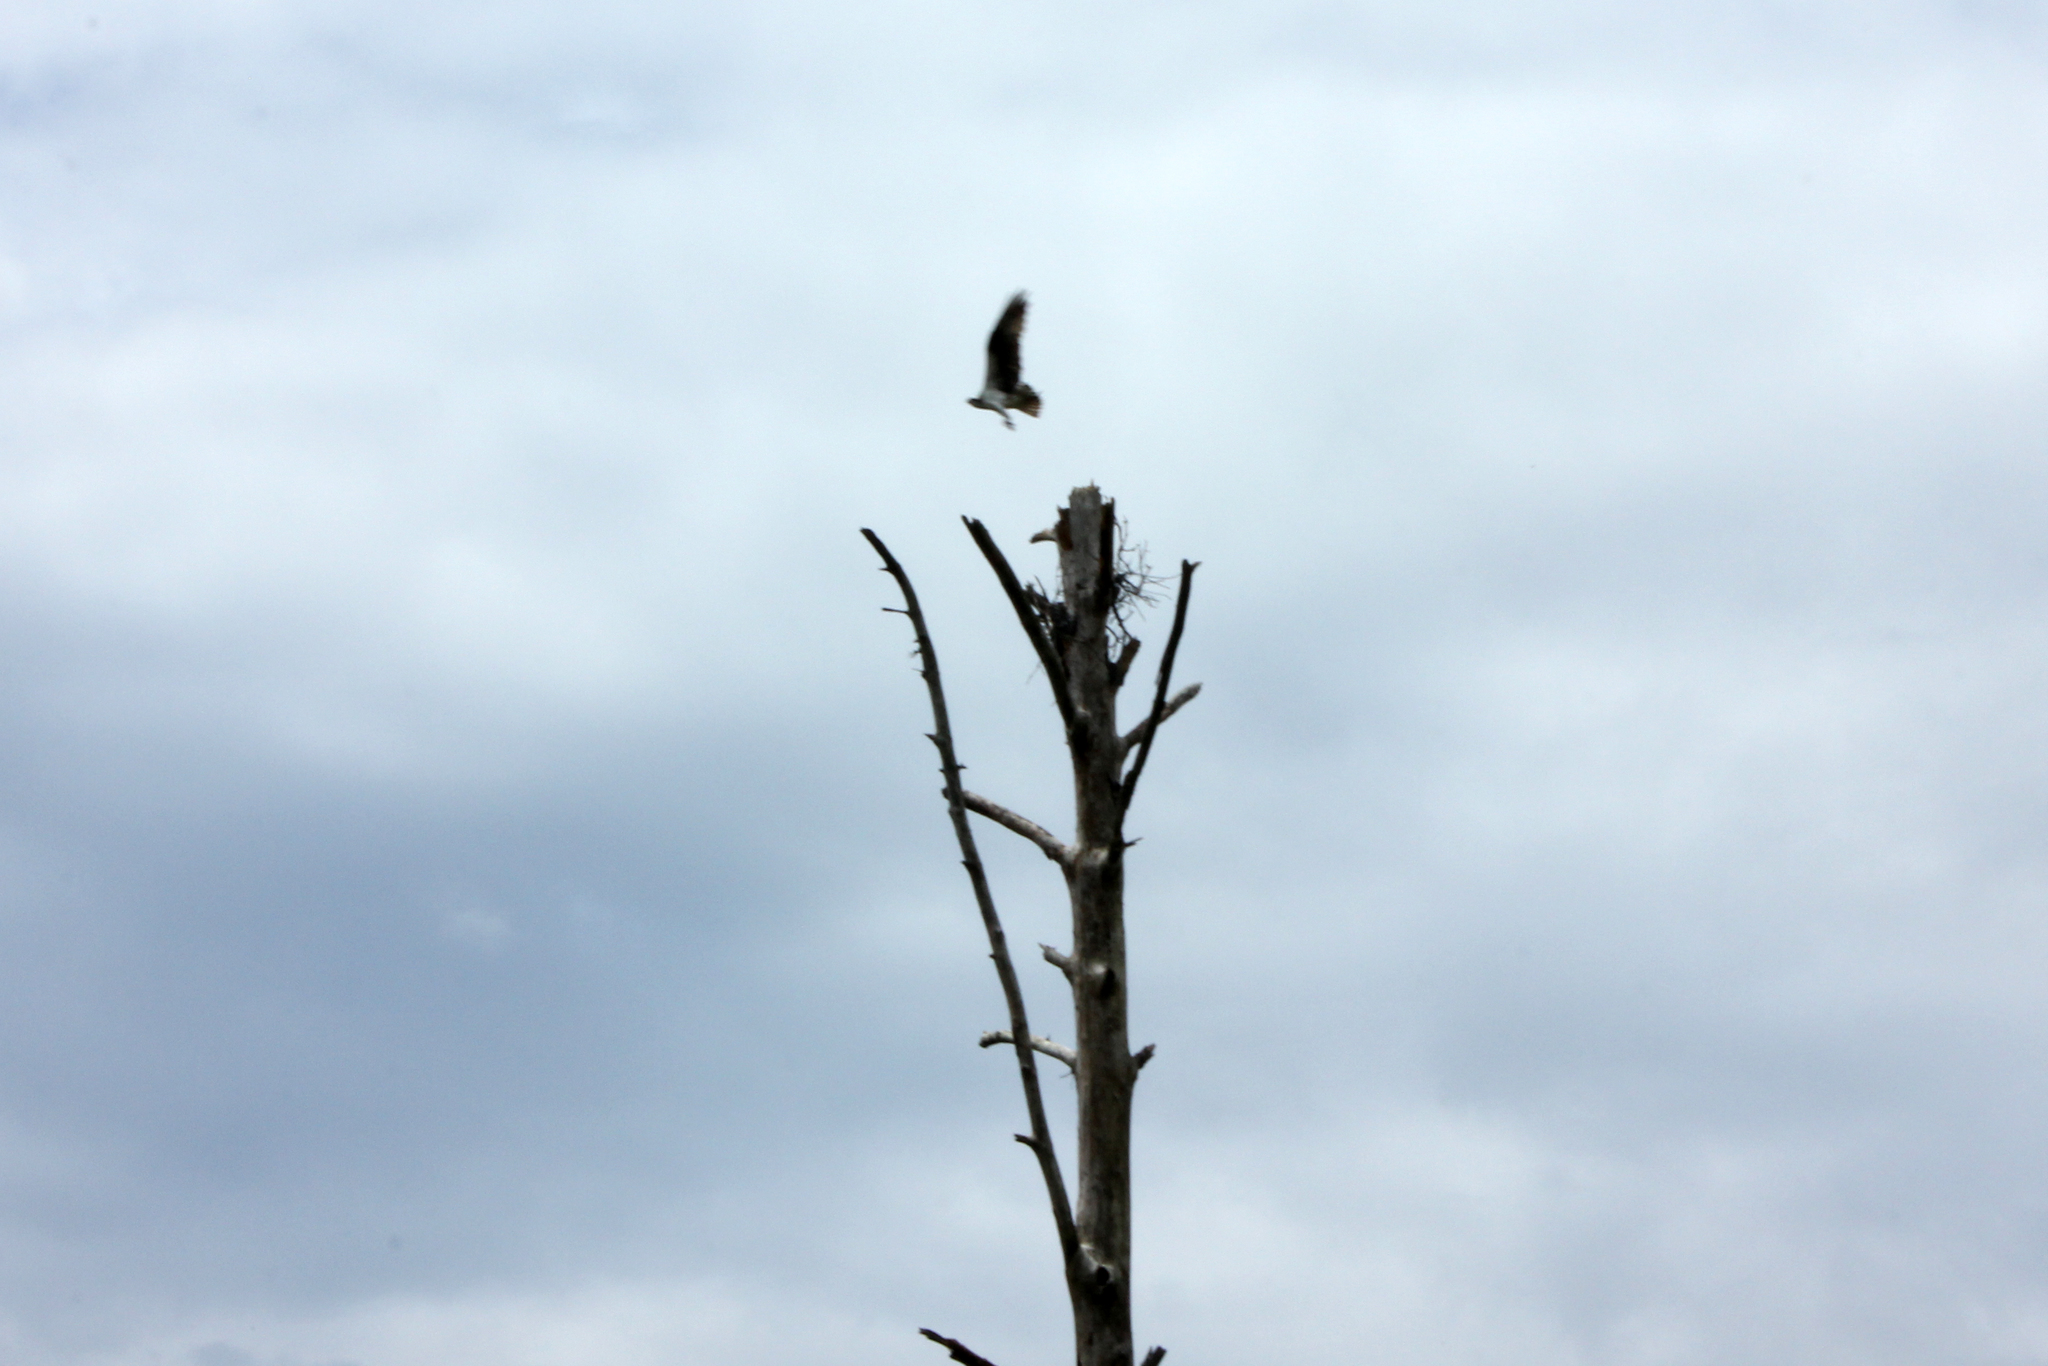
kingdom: Animalia
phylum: Chordata
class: Aves
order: Accipitriformes
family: Pandionidae
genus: Pandion
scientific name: Pandion haliaetus
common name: Osprey
